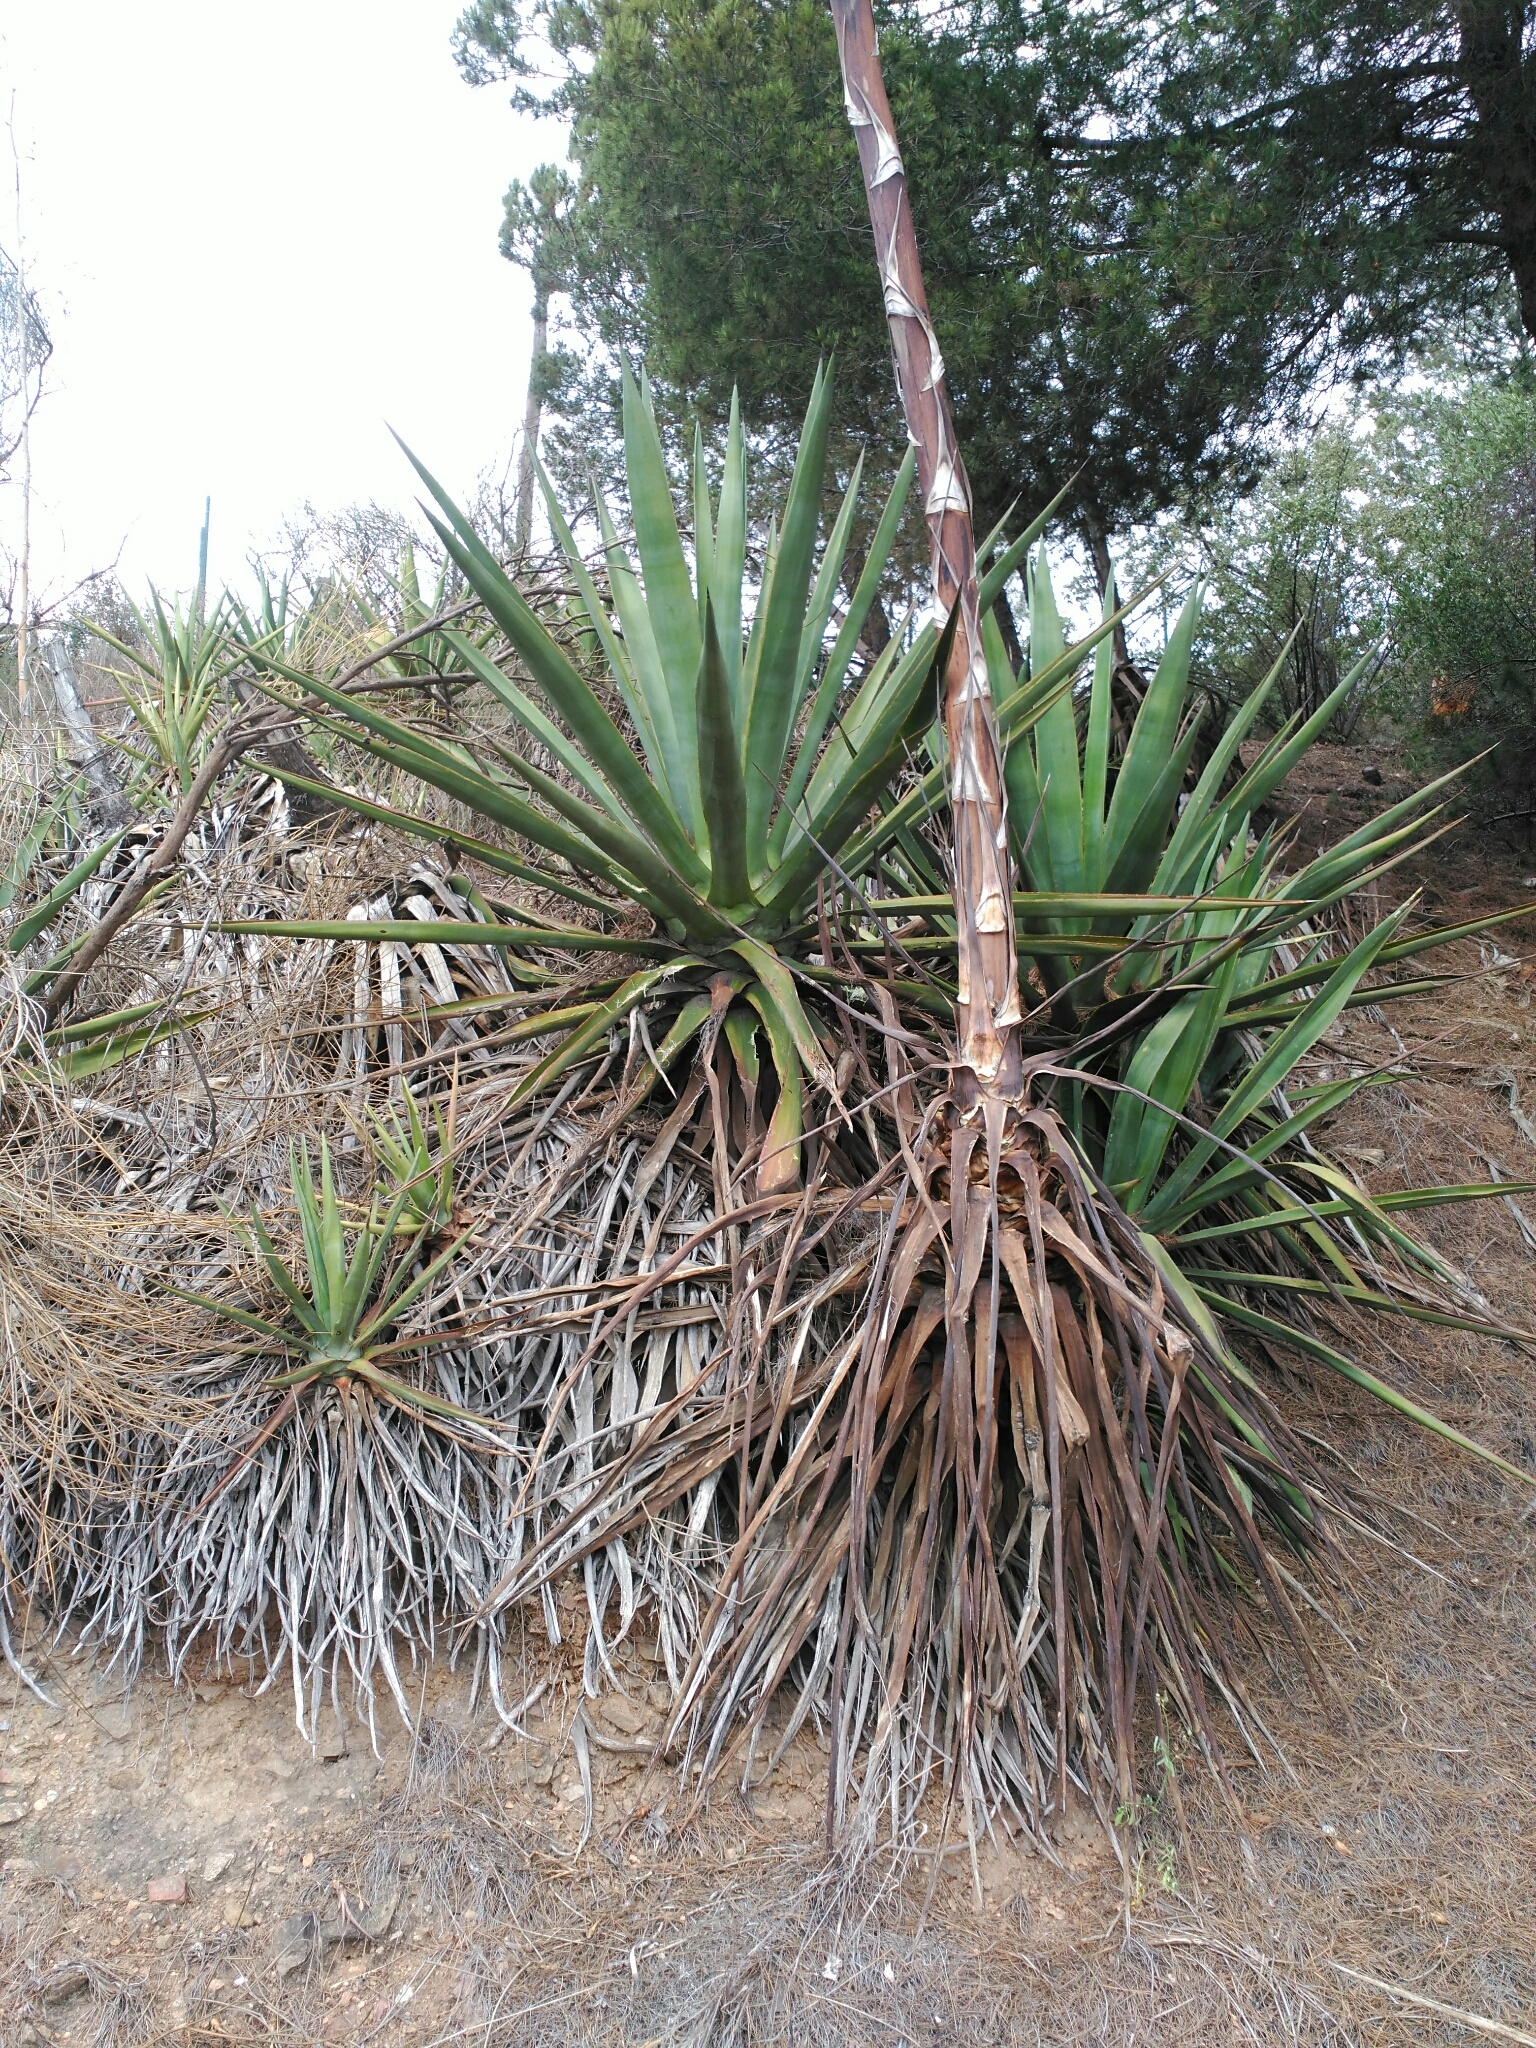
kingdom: Plantae
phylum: Tracheophyta
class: Liliopsida
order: Asparagales
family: Asparagaceae
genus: Agave
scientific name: Agave angustifolia
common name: Mescal agave
